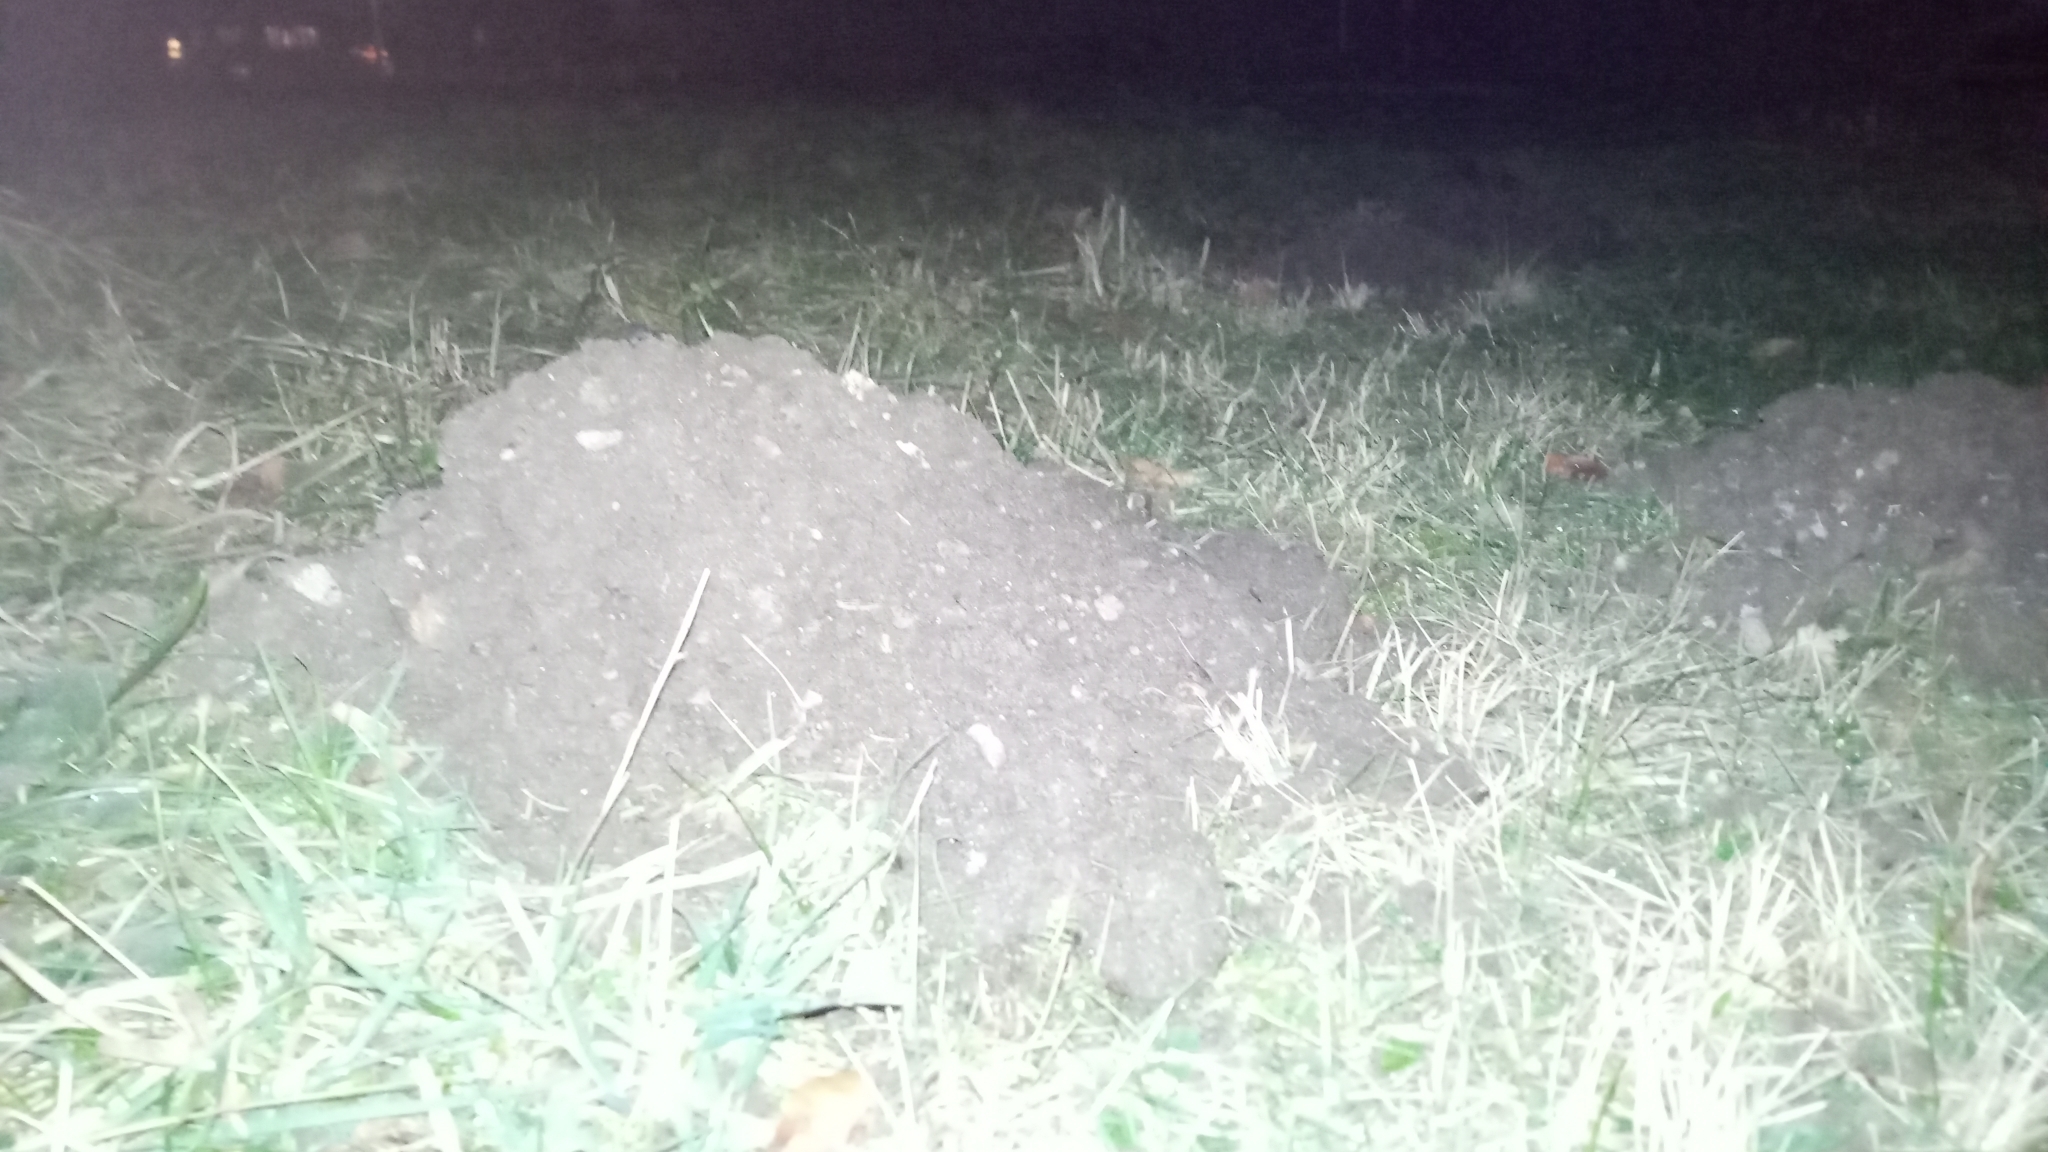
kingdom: Animalia
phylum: Chordata
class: Mammalia
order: Soricomorpha
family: Talpidae
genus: Talpa
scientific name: Talpa europaea
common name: European mole
